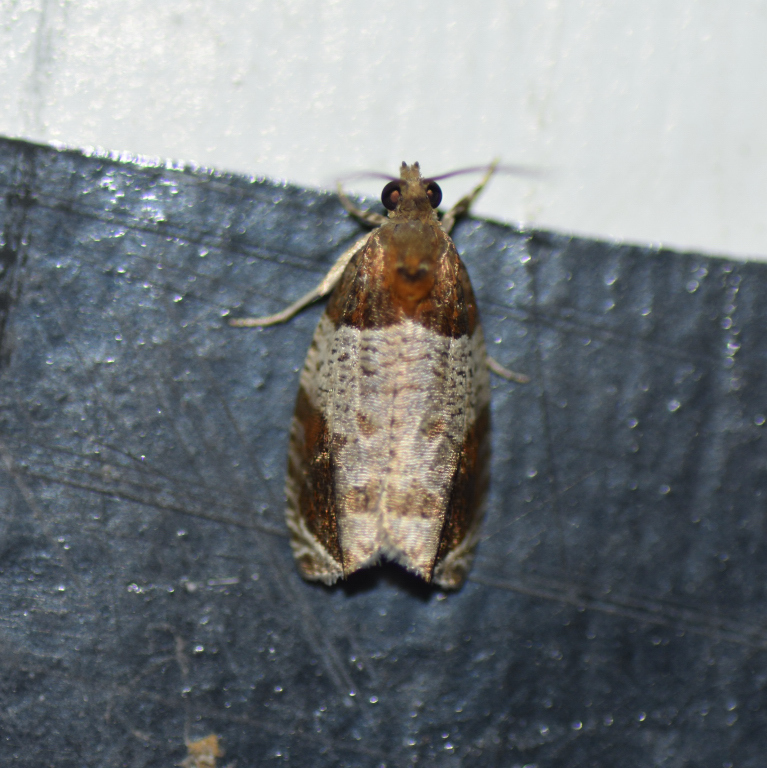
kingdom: Animalia
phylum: Arthropoda
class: Insecta
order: Lepidoptera
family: Tortricidae
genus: Olethreutes
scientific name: Olethreutes ferriferana
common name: Hydrangea leaftier moth
